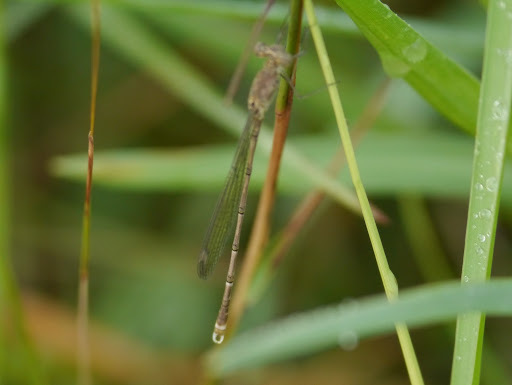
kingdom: Animalia
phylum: Arthropoda
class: Insecta
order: Odonata
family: Lestidae
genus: Lestes
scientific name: Lestes tridens
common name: Spotted spreadwing
